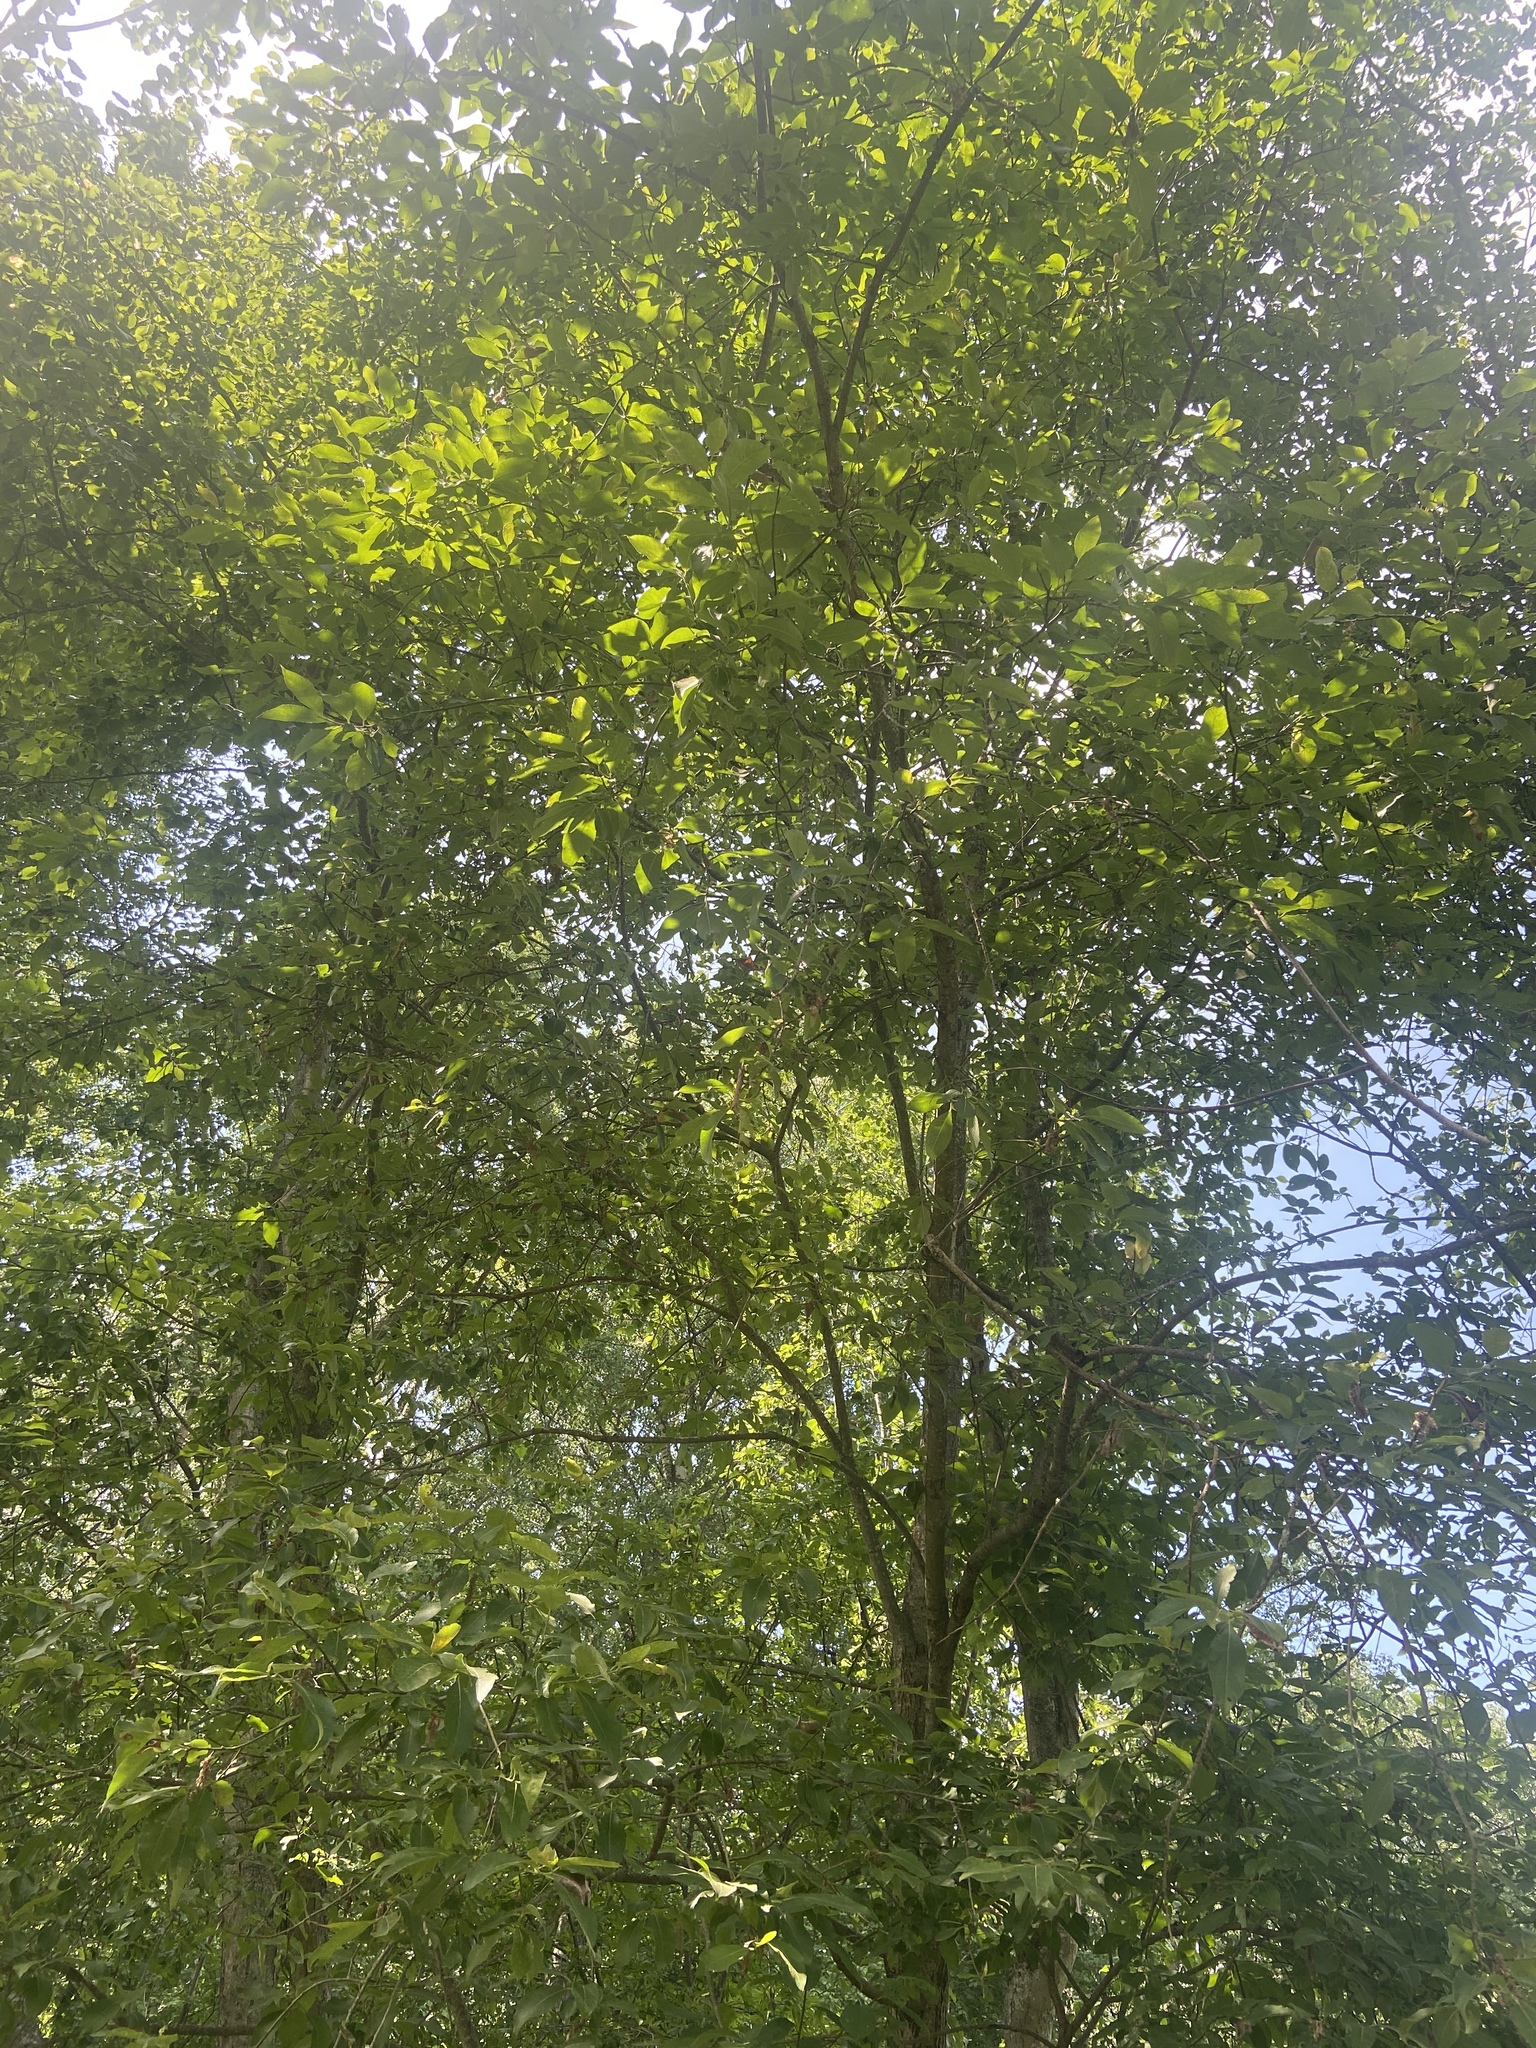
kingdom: Plantae
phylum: Tracheophyta
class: Magnoliopsida
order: Malpighiales
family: Salicaceae
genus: Salix
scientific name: Salix caprea
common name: Goat willow
